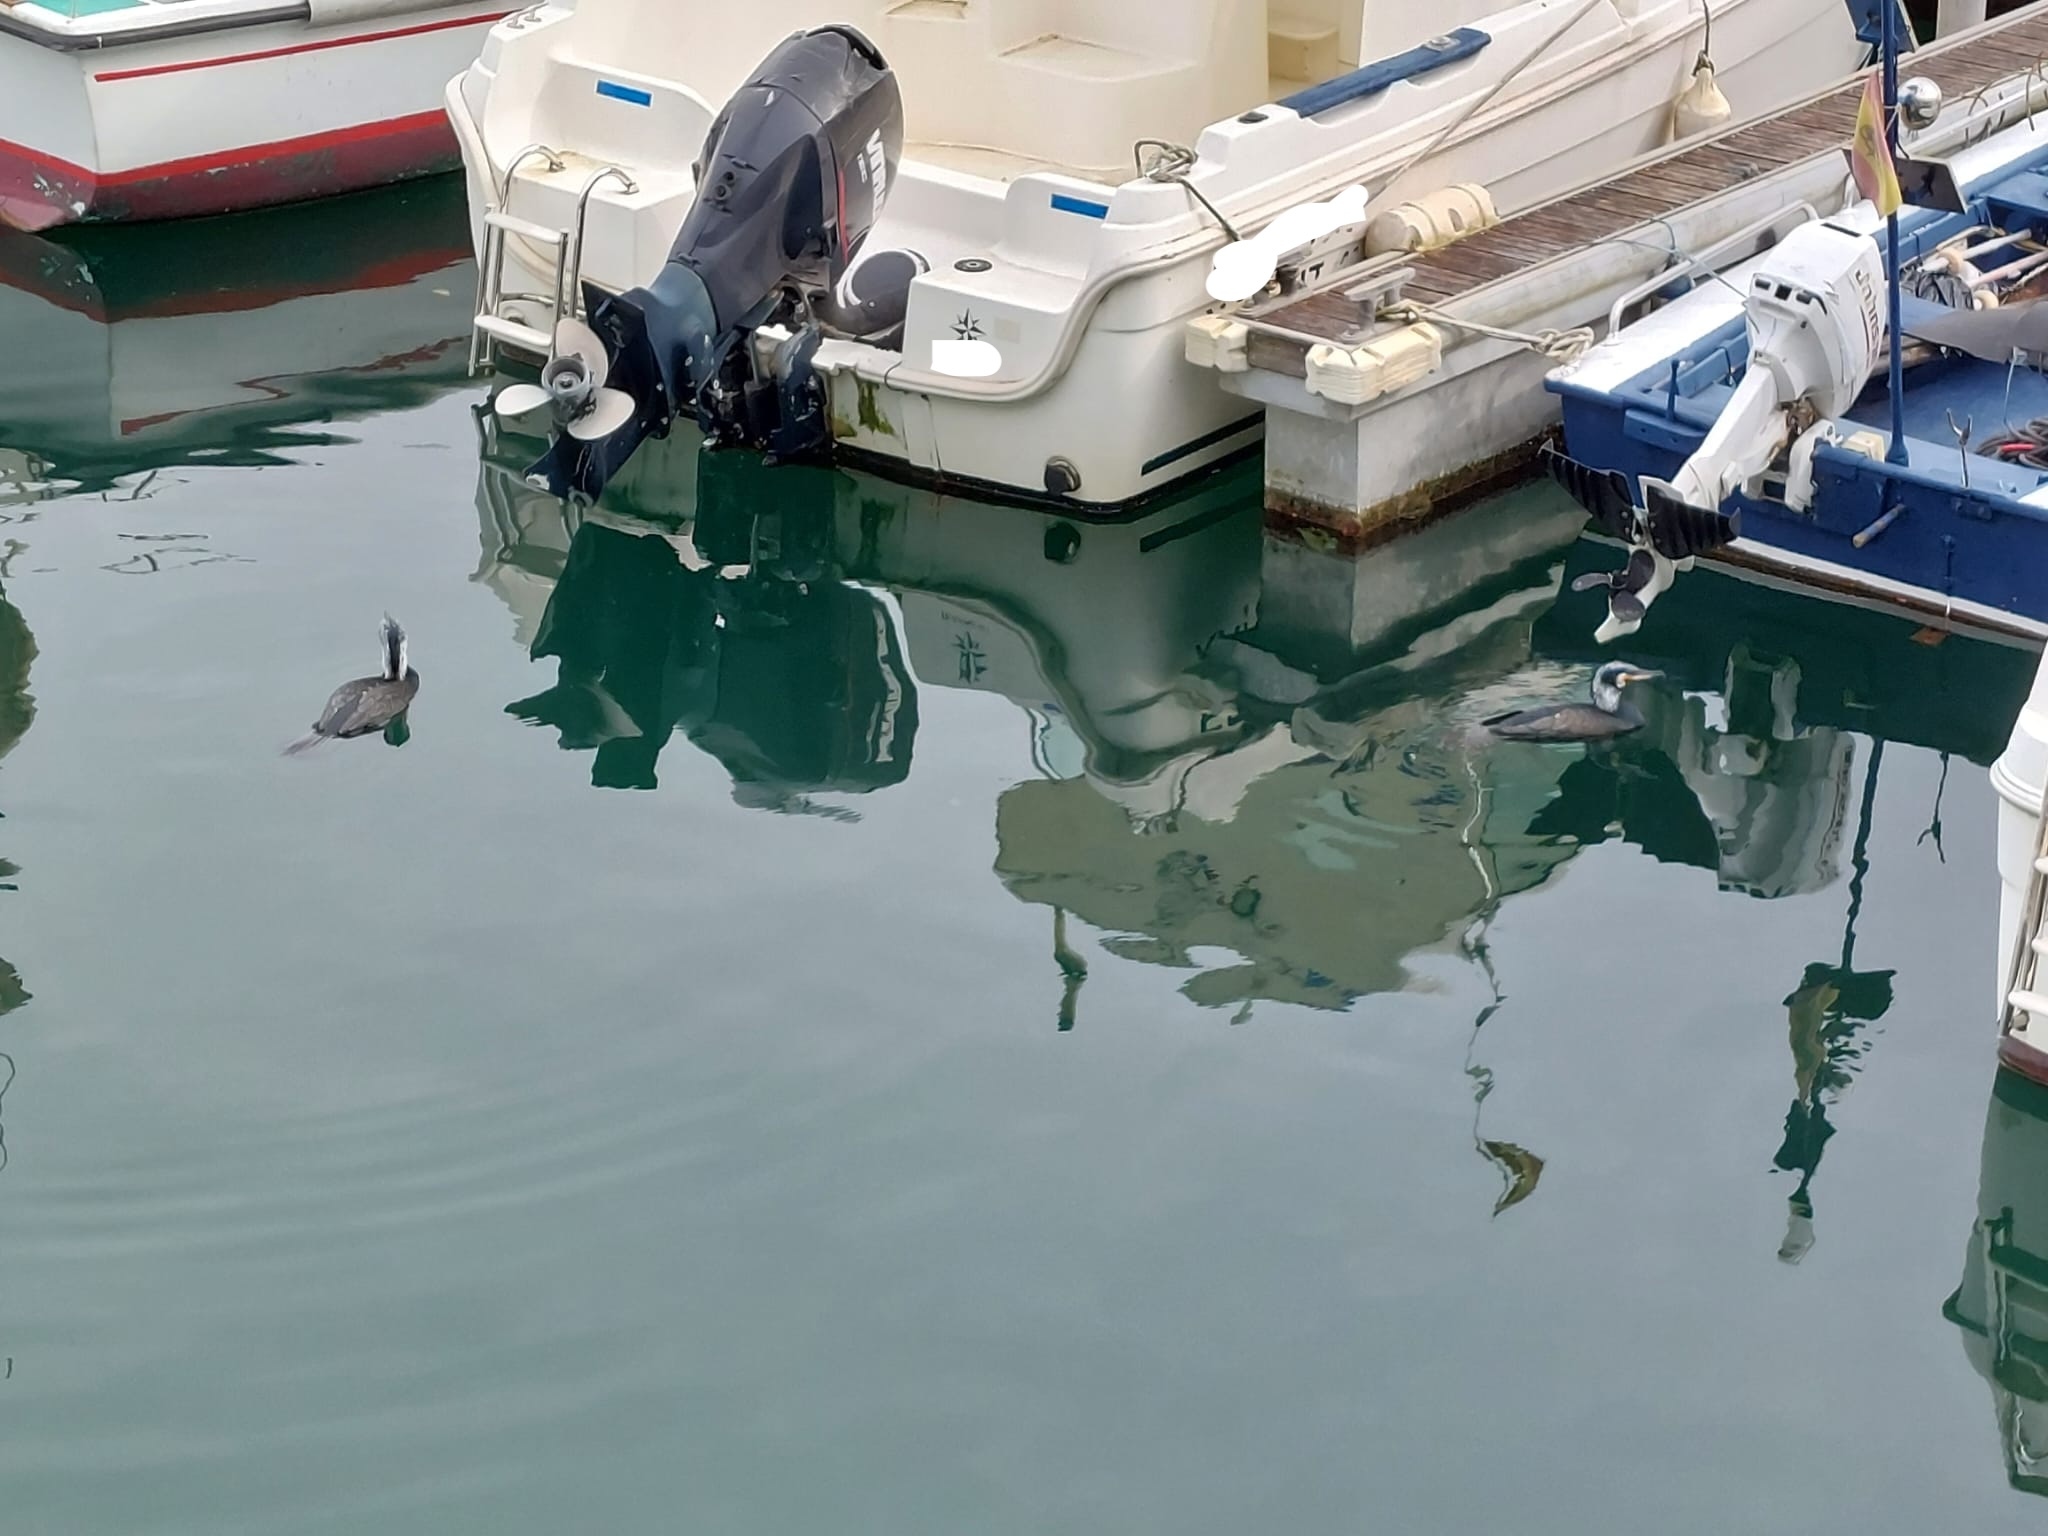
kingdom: Animalia
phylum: Chordata
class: Aves
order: Suliformes
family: Phalacrocoracidae
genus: Phalacrocorax
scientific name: Phalacrocorax carbo
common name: Great cormorant
